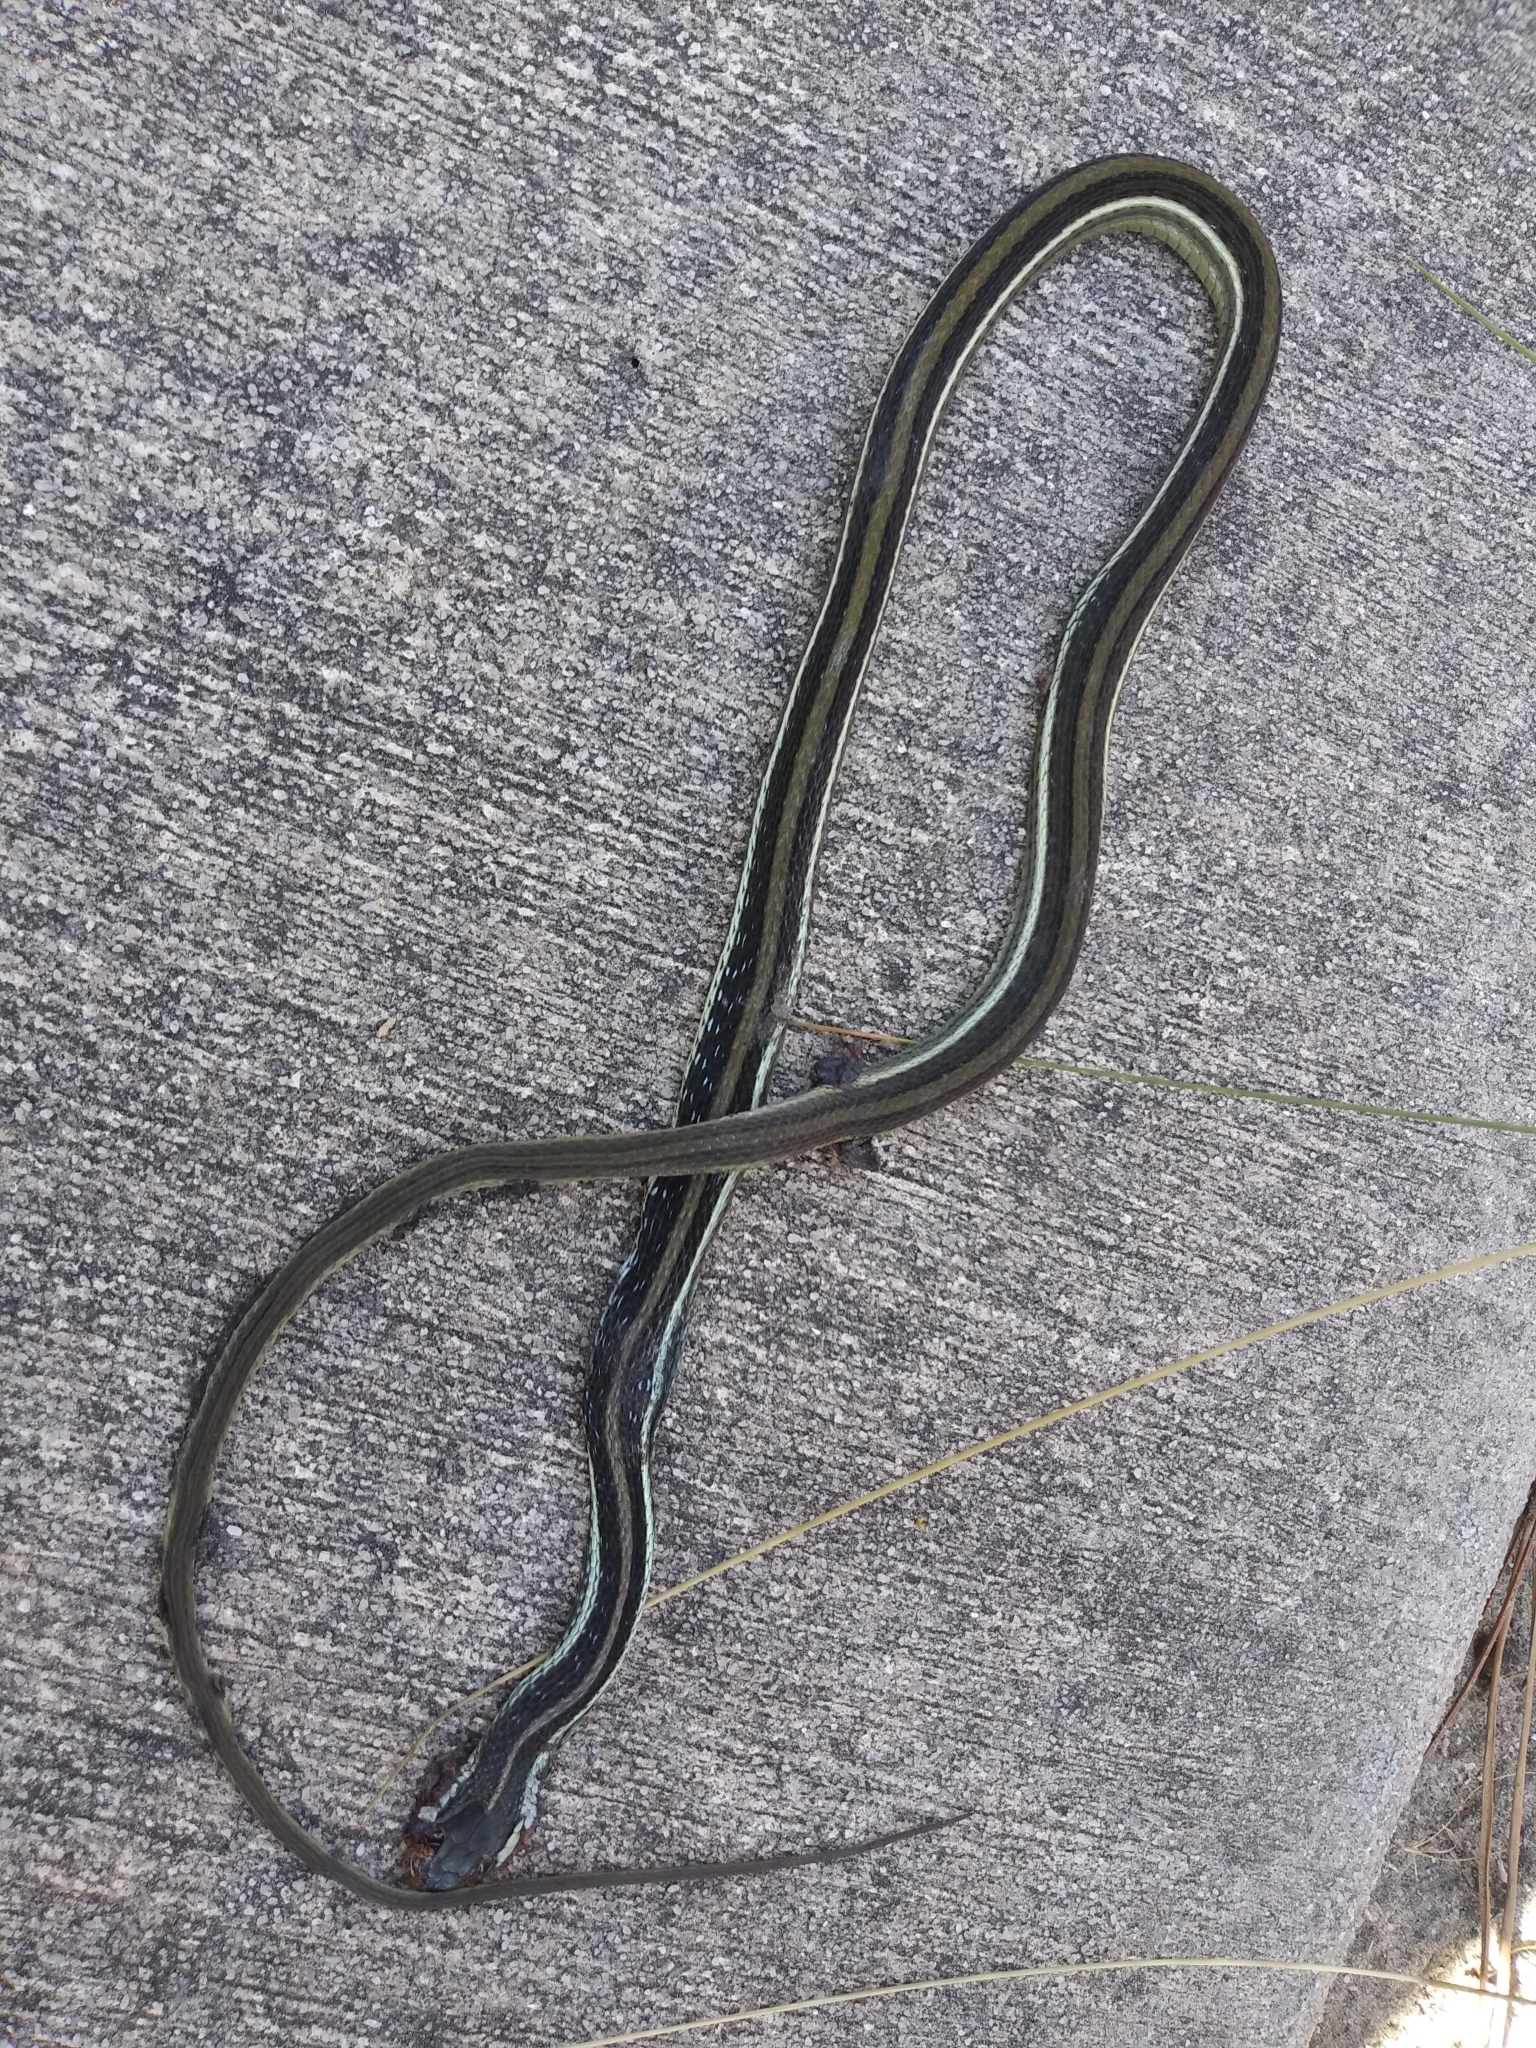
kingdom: Animalia
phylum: Chordata
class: Squamata
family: Colubridae
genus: Thamnophis
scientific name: Thamnophis saurita
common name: Eastern ribbonsnake
